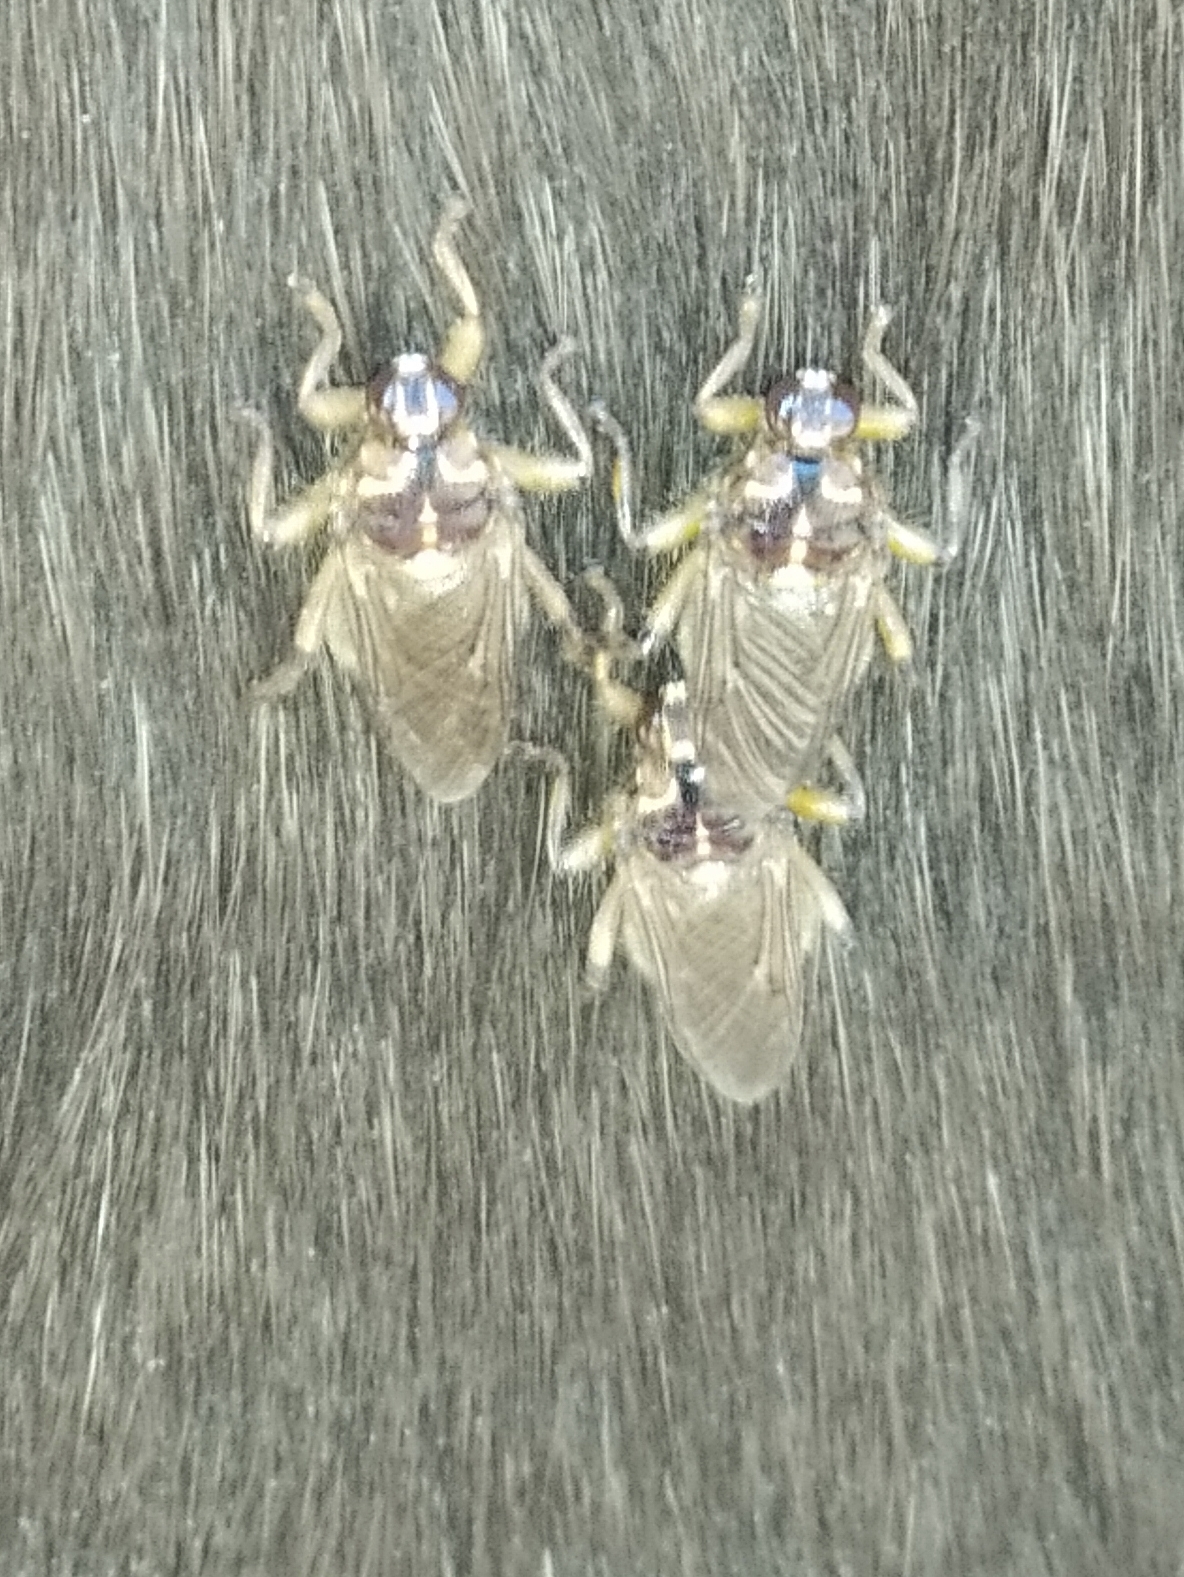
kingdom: Animalia
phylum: Arthropoda
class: Insecta
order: Diptera
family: Hippoboscidae
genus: Hippobosca
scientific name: Hippobosca equina
